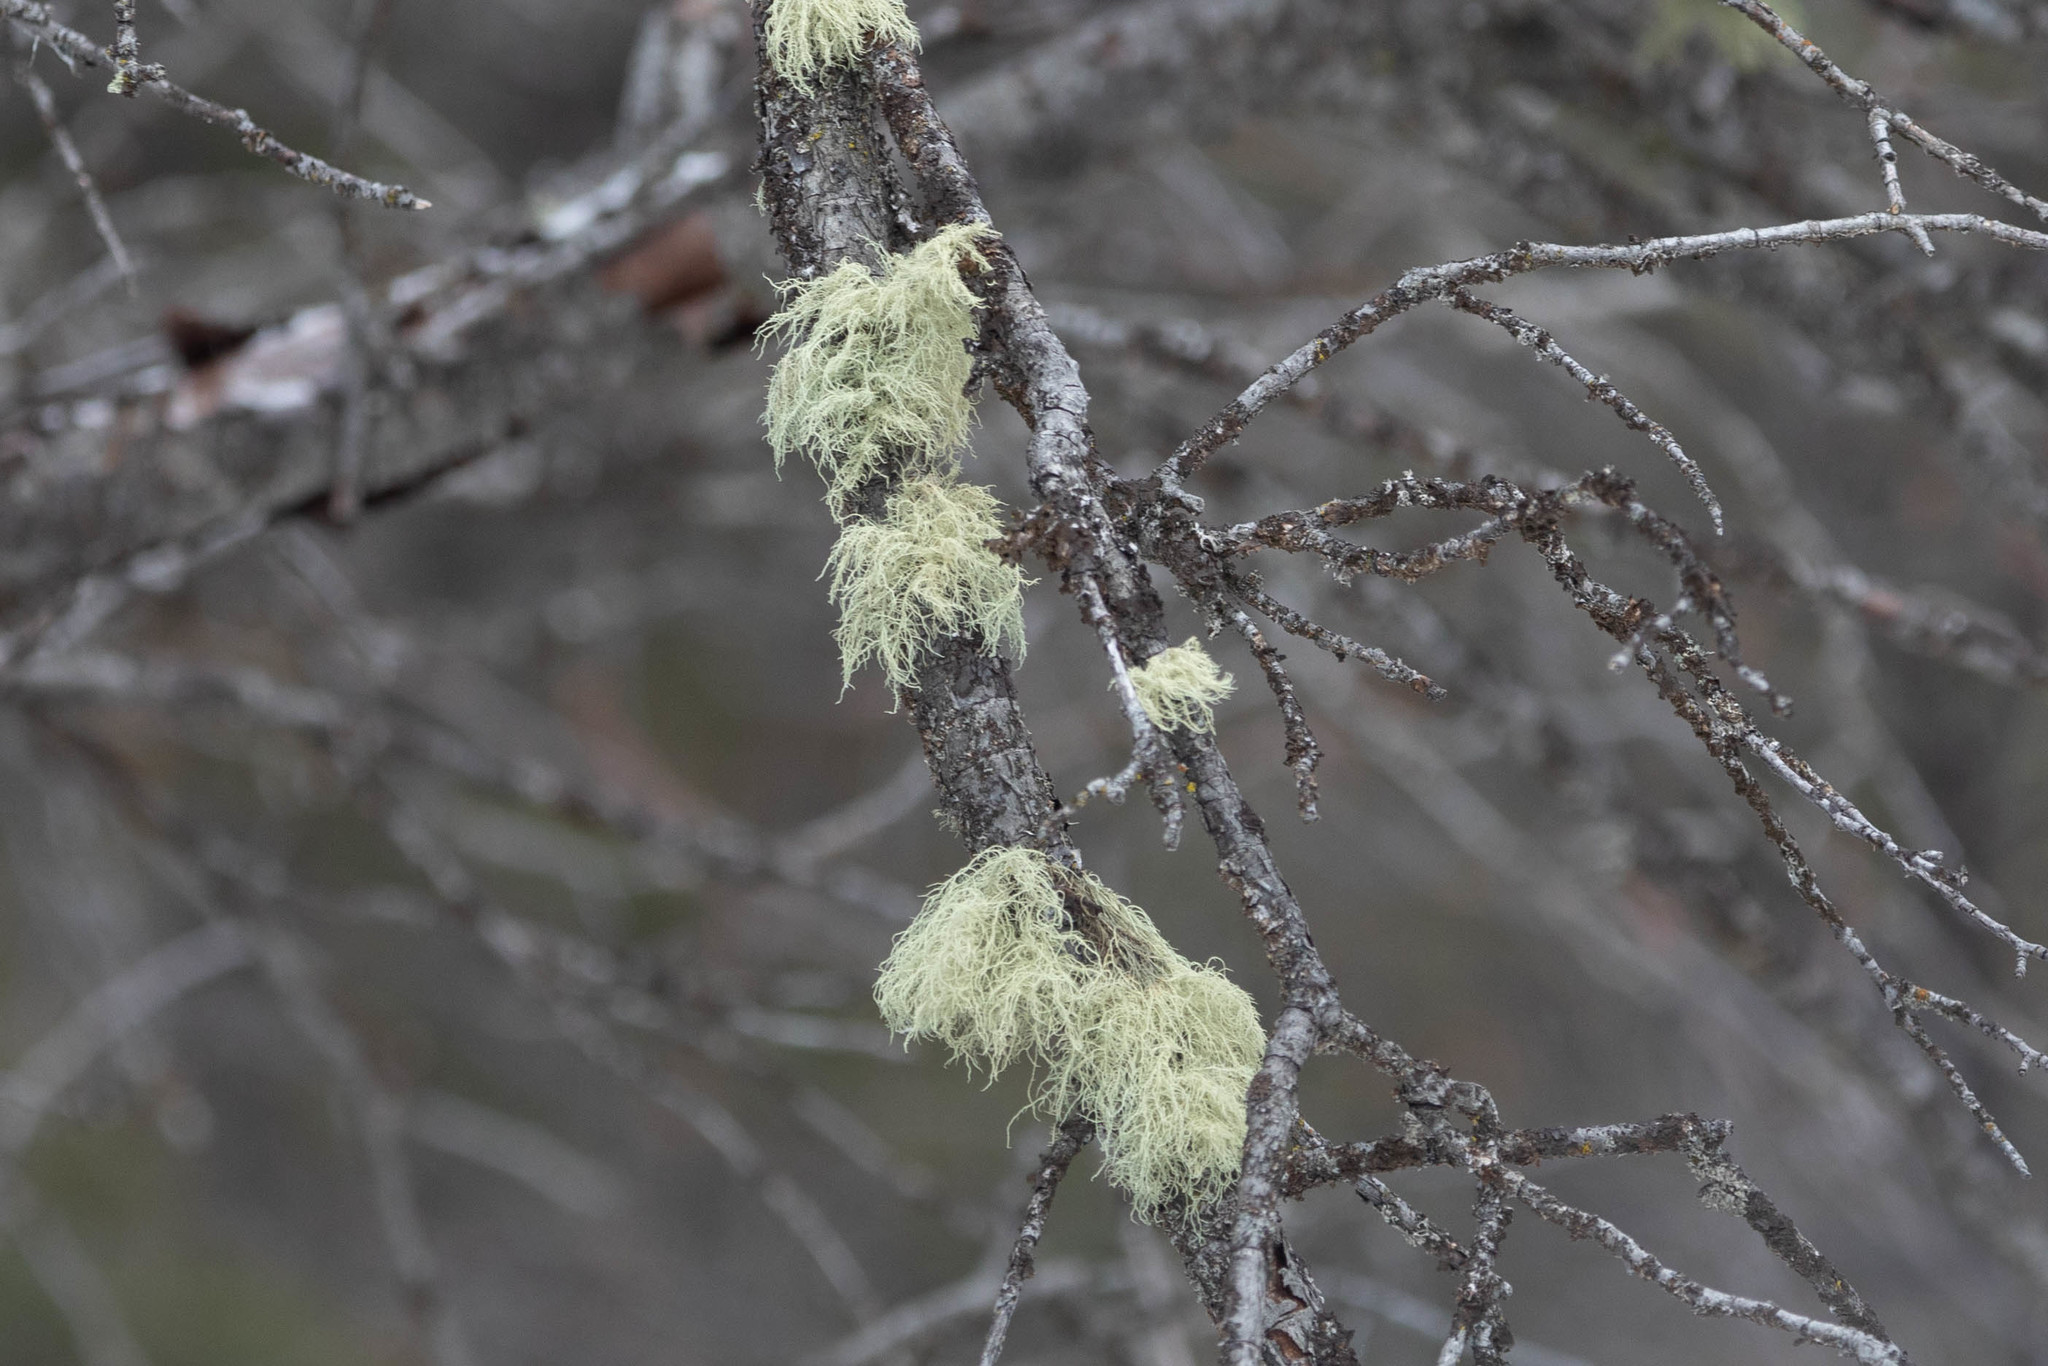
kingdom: Fungi
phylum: Ascomycota
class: Lecanoromycetes
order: Lecanorales
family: Parmeliaceae
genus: Evernia
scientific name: Evernia mesomorpha
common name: Boreal oak moss lichen
